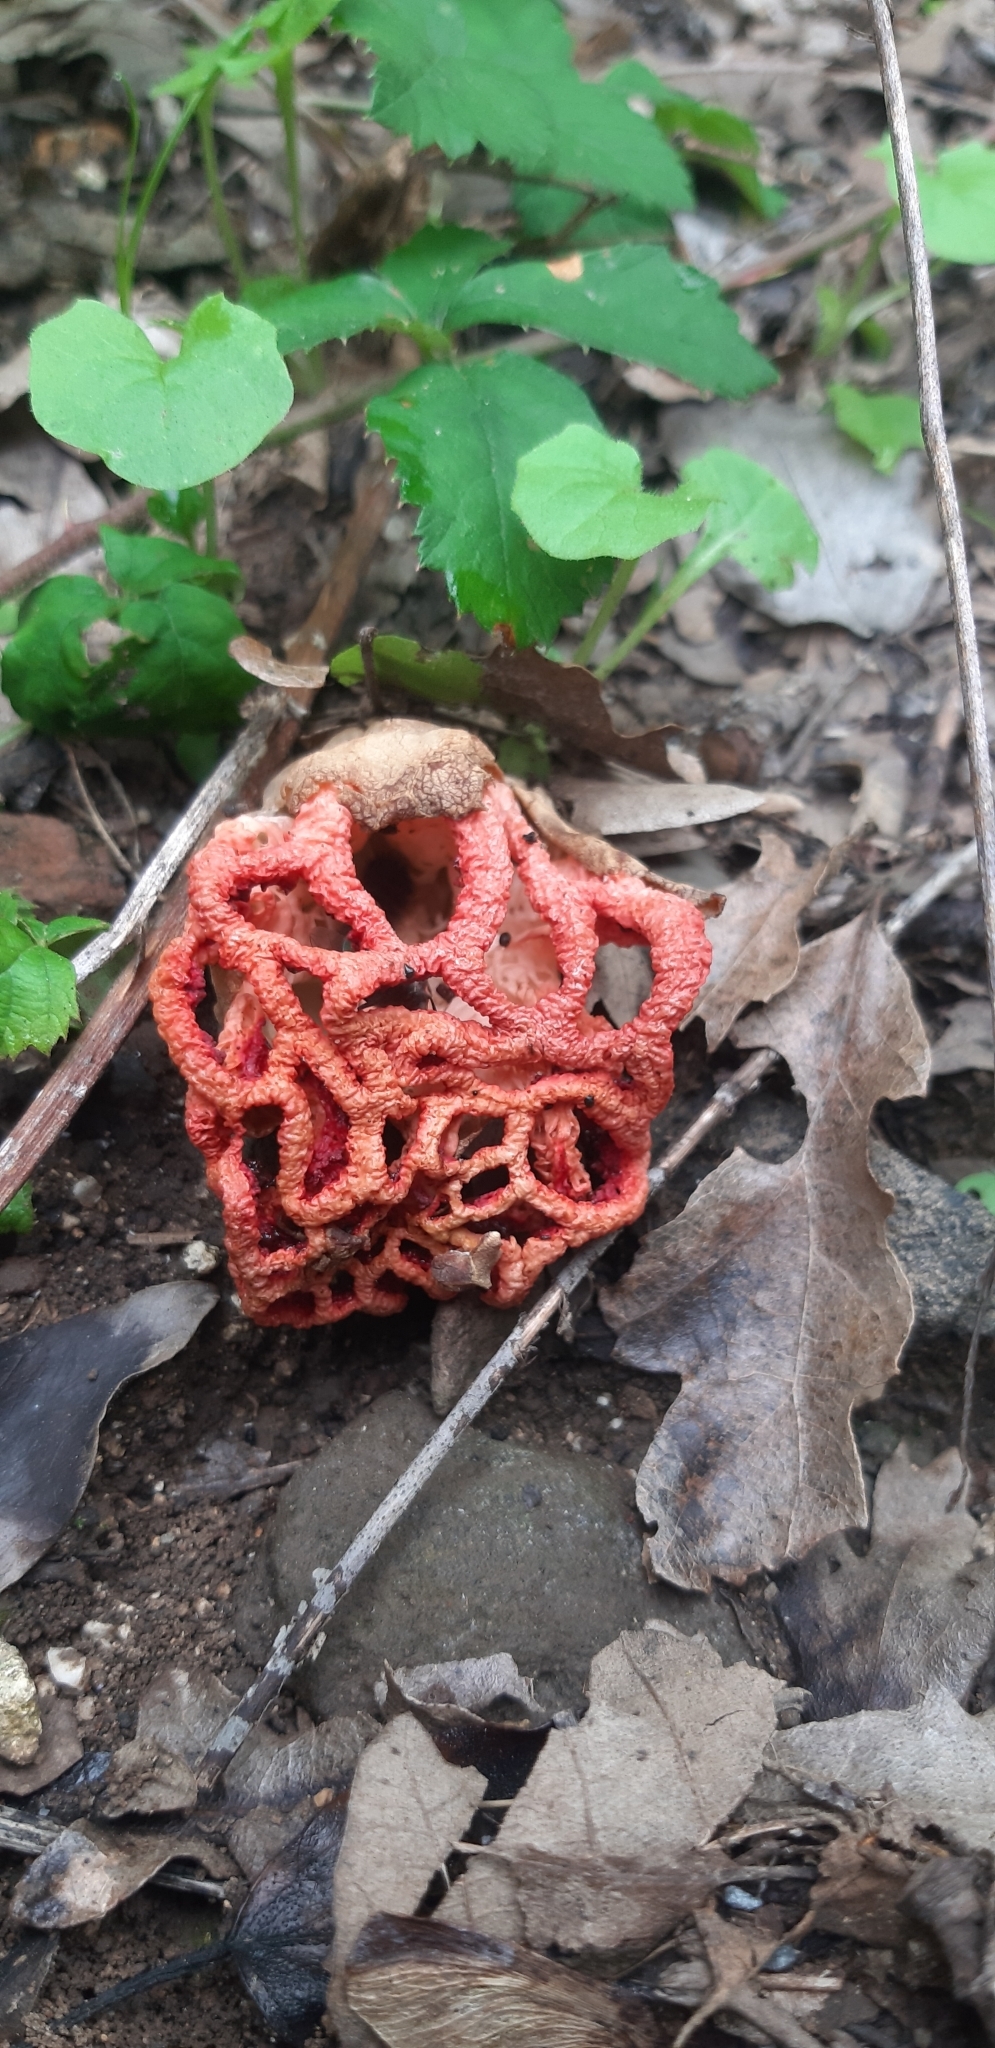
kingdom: Fungi
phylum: Basidiomycota
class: Agaricomycetes
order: Phallales
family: Phallaceae
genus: Clathrus
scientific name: Clathrus ruber
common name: Red cage
